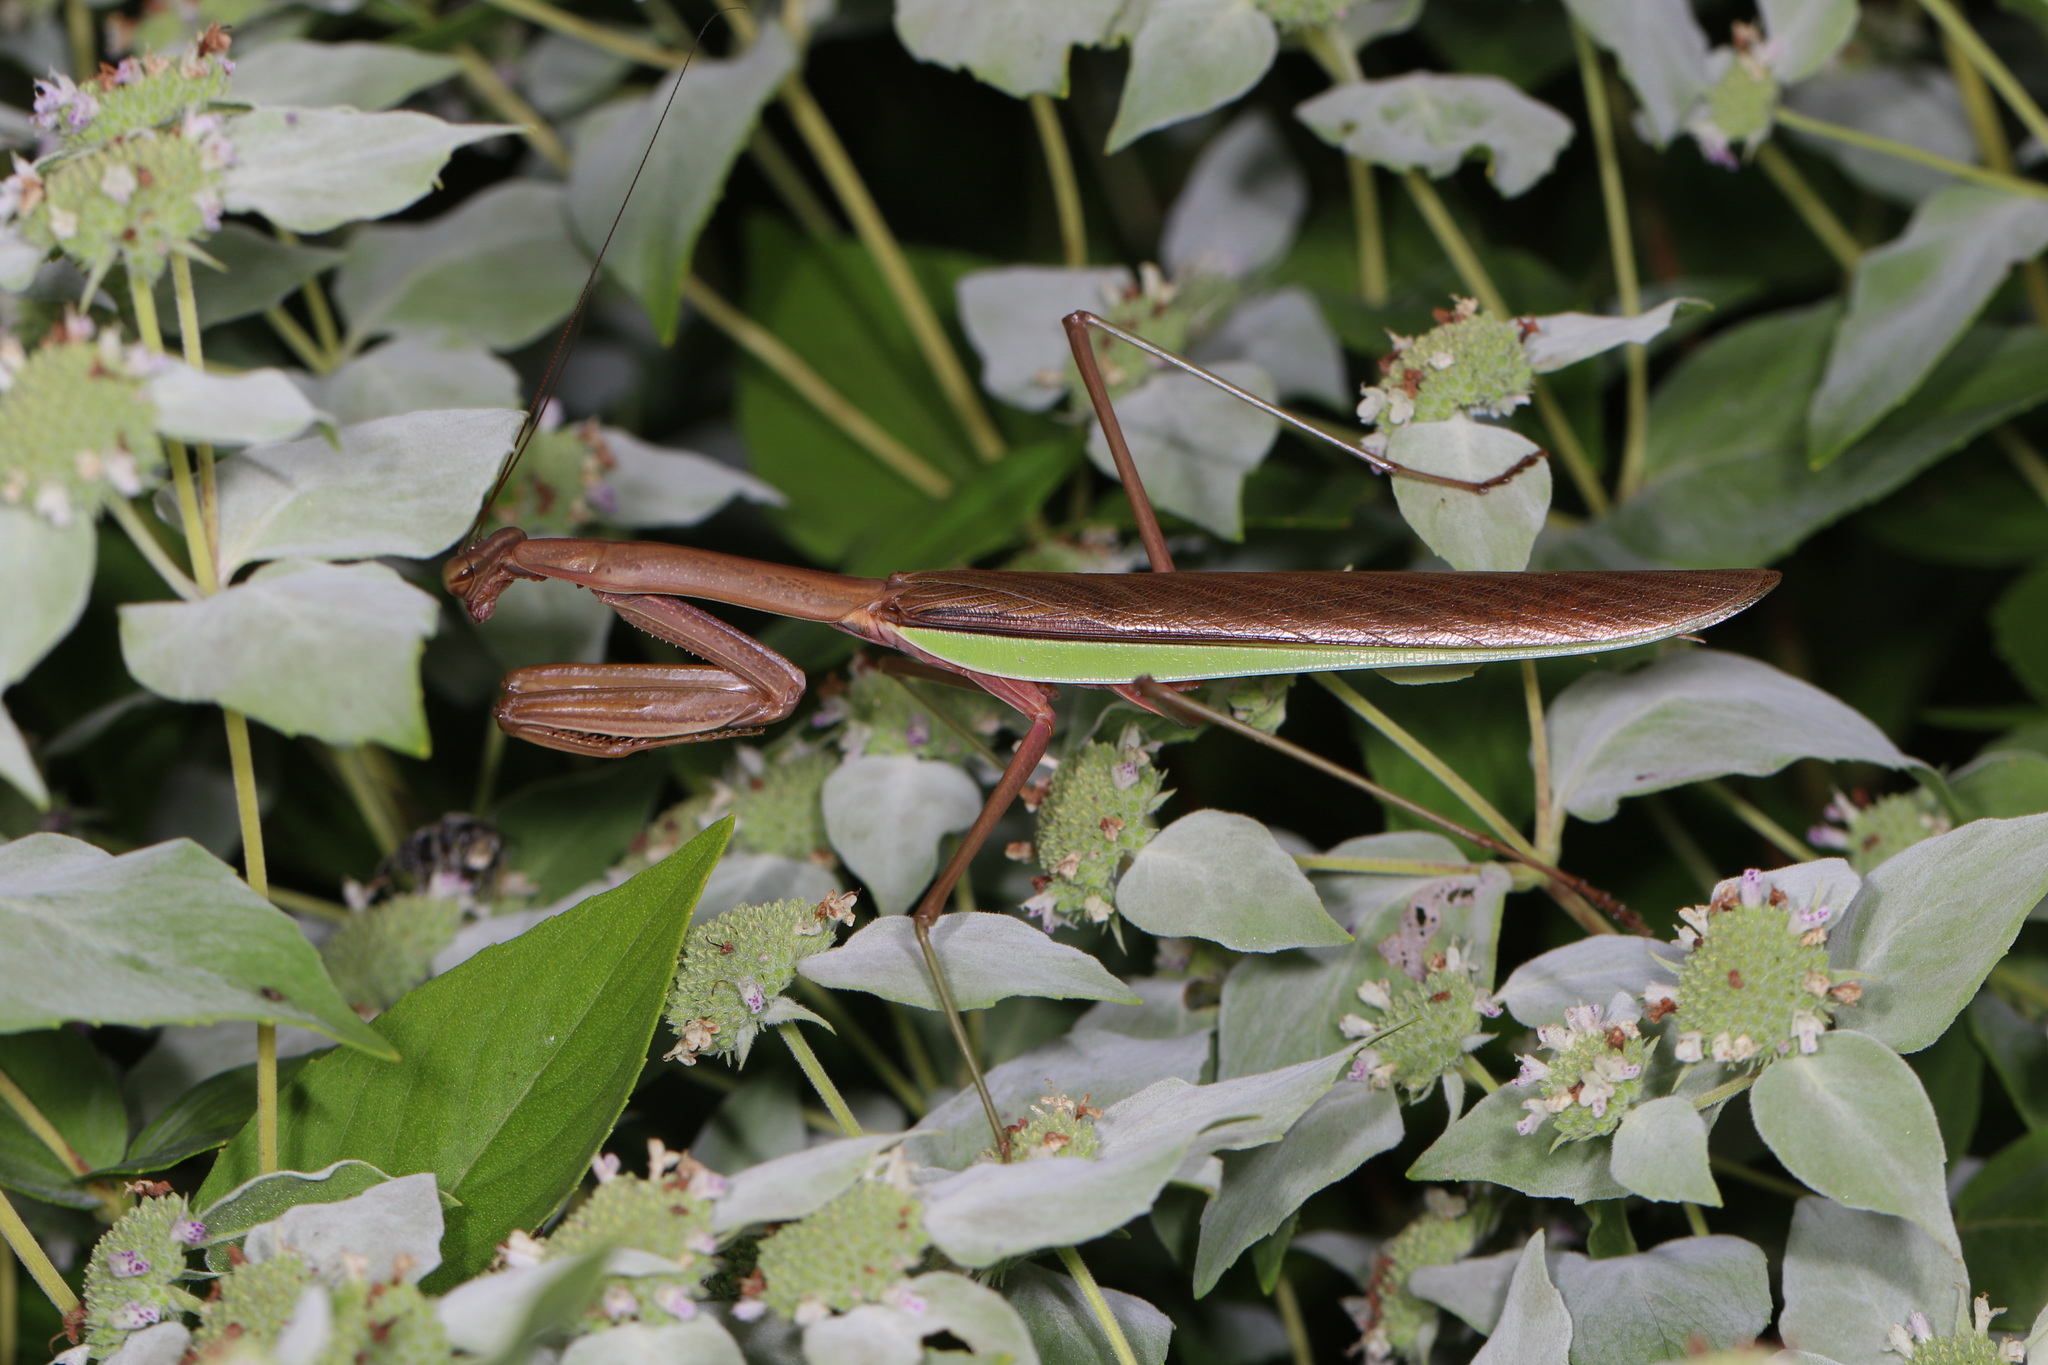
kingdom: Animalia
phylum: Arthropoda
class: Insecta
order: Mantodea
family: Mantidae
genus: Tenodera
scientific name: Tenodera sinensis
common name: Chinese mantis
